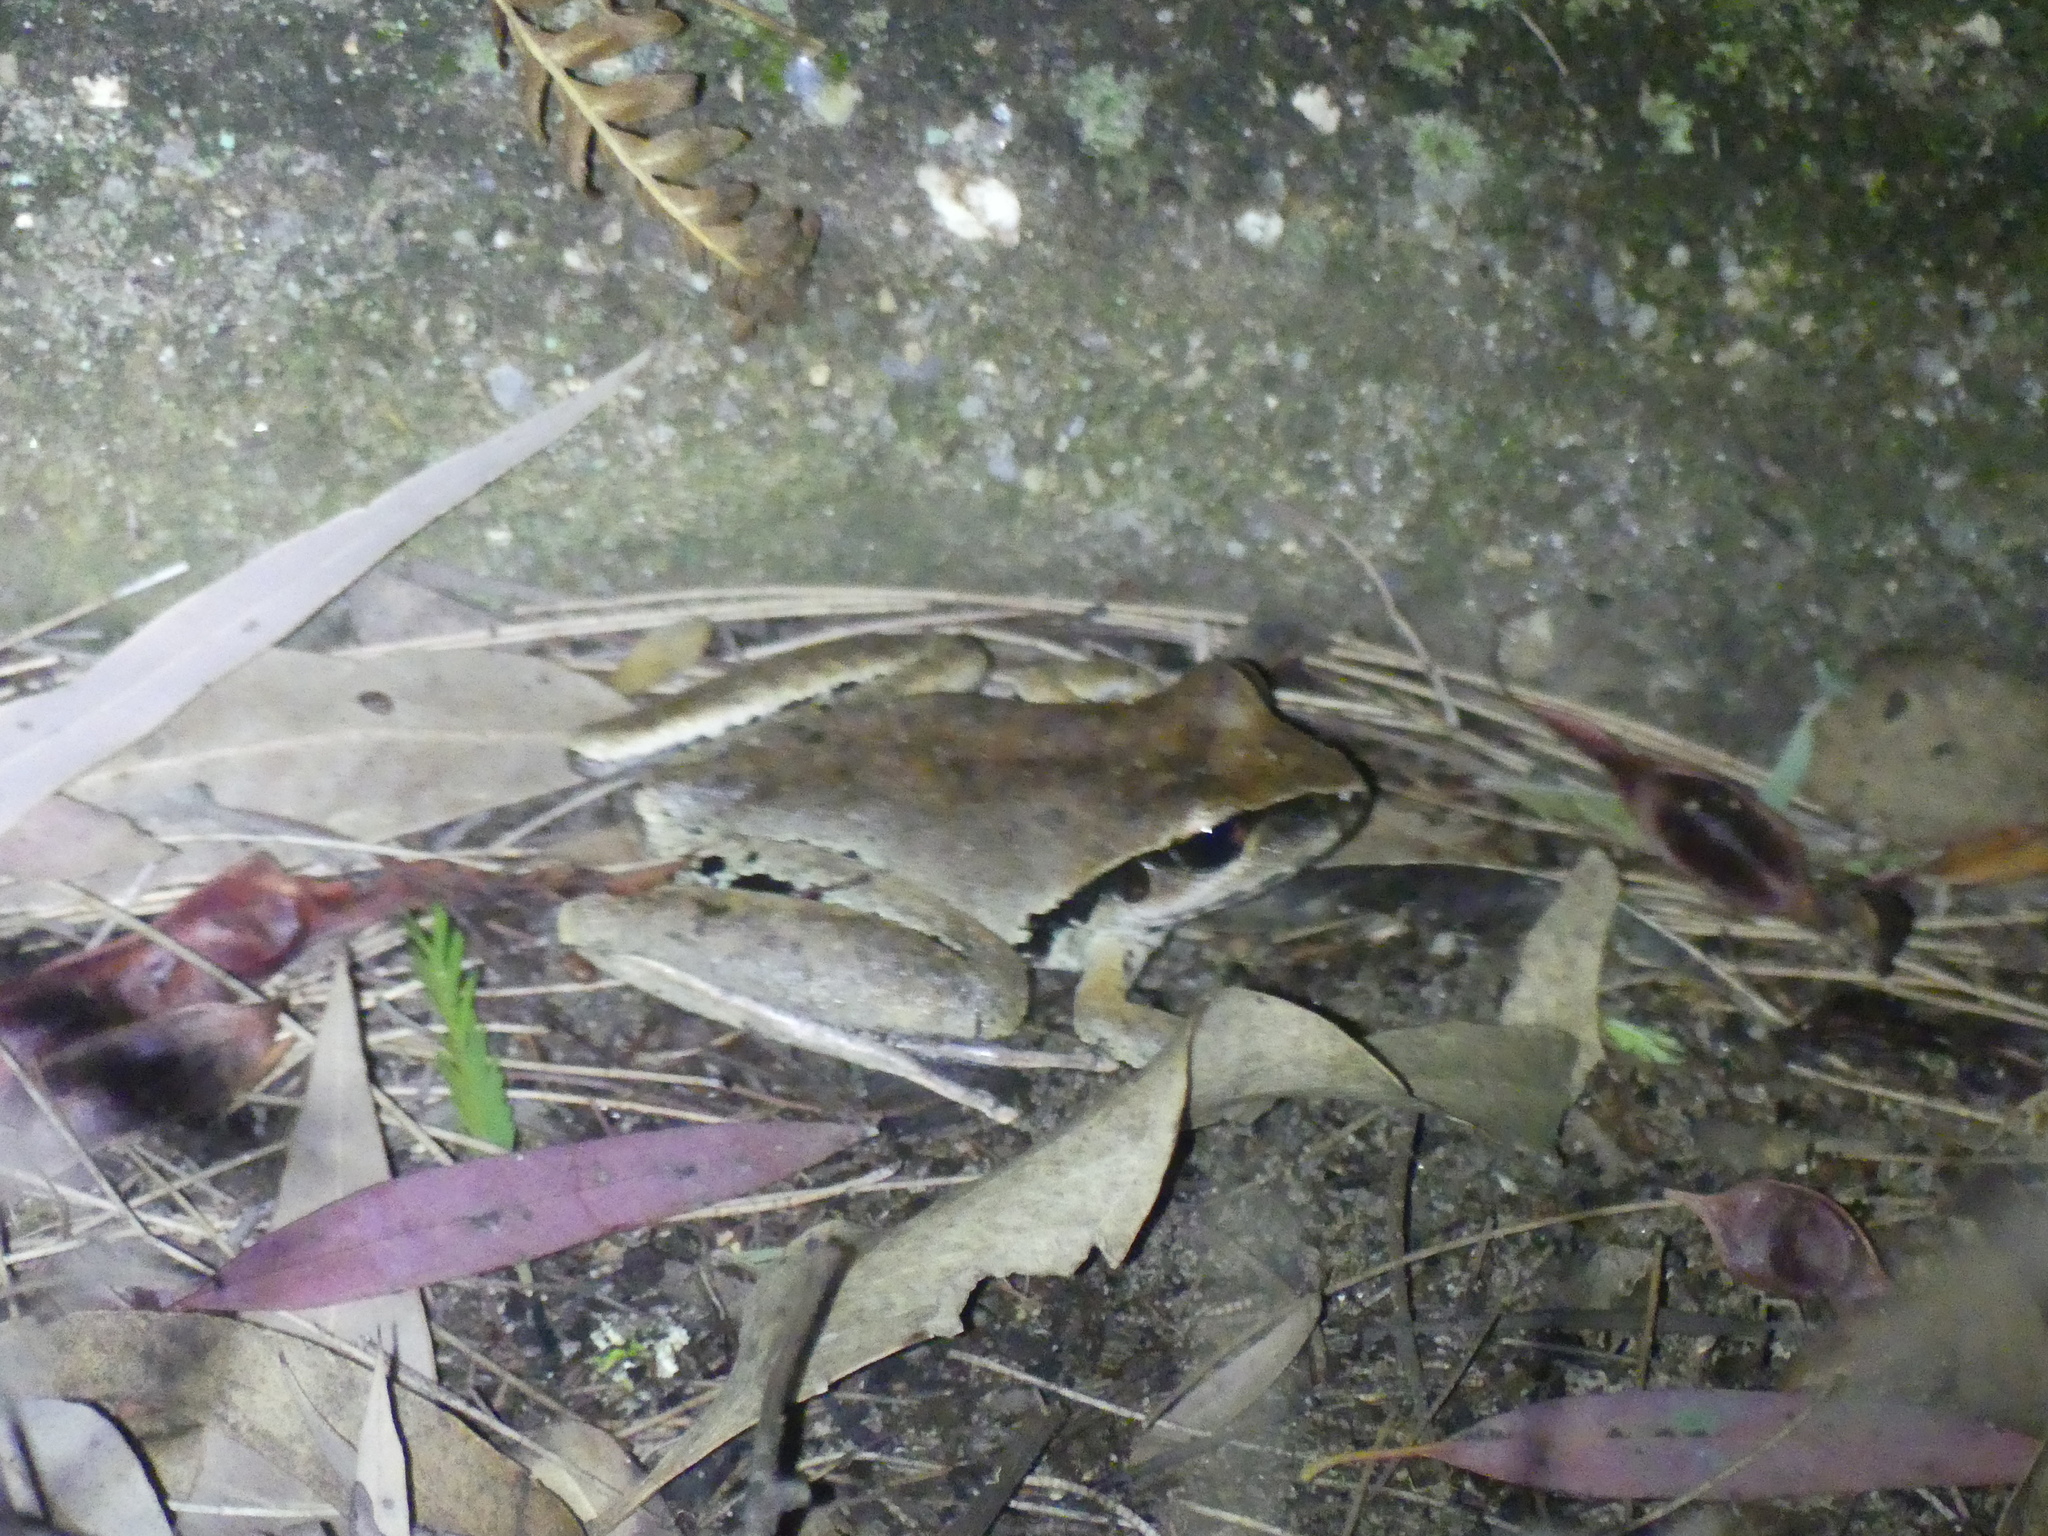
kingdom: Animalia
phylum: Chordata
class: Amphibia
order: Anura
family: Pelodryadidae
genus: Ranoidea
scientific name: Ranoidea wilcoxii
